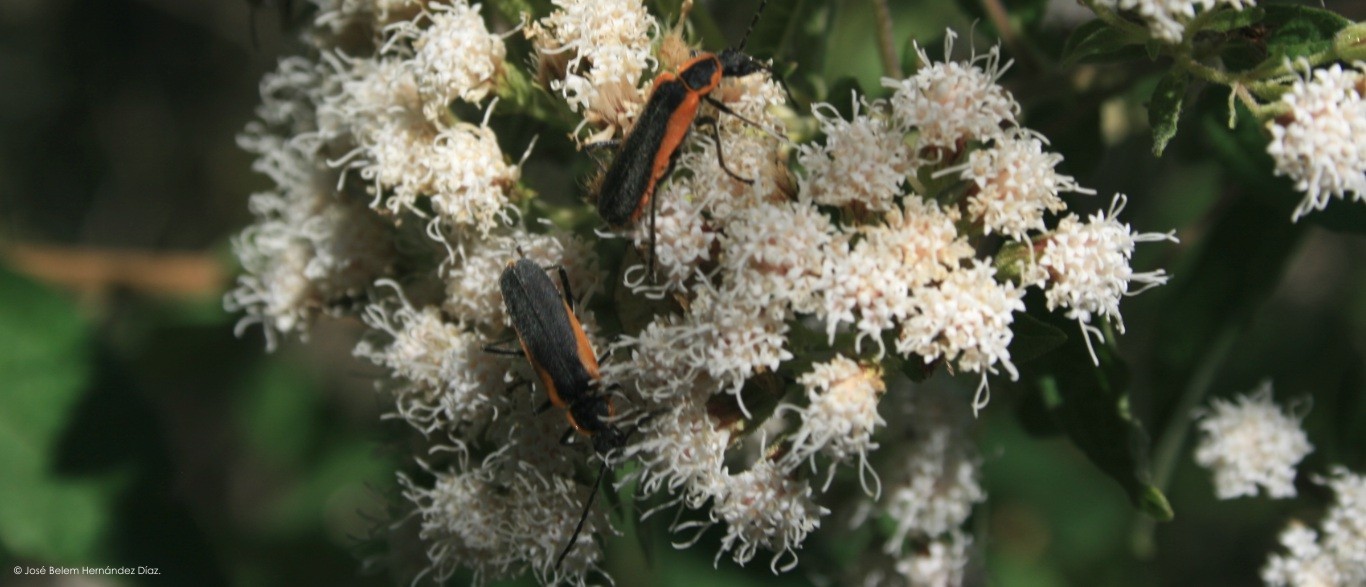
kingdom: Animalia
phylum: Arthropoda
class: Insecta
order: Coleoptera
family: Cantharidae
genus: Chauliognathus
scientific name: Chauliognathus limbicollis
